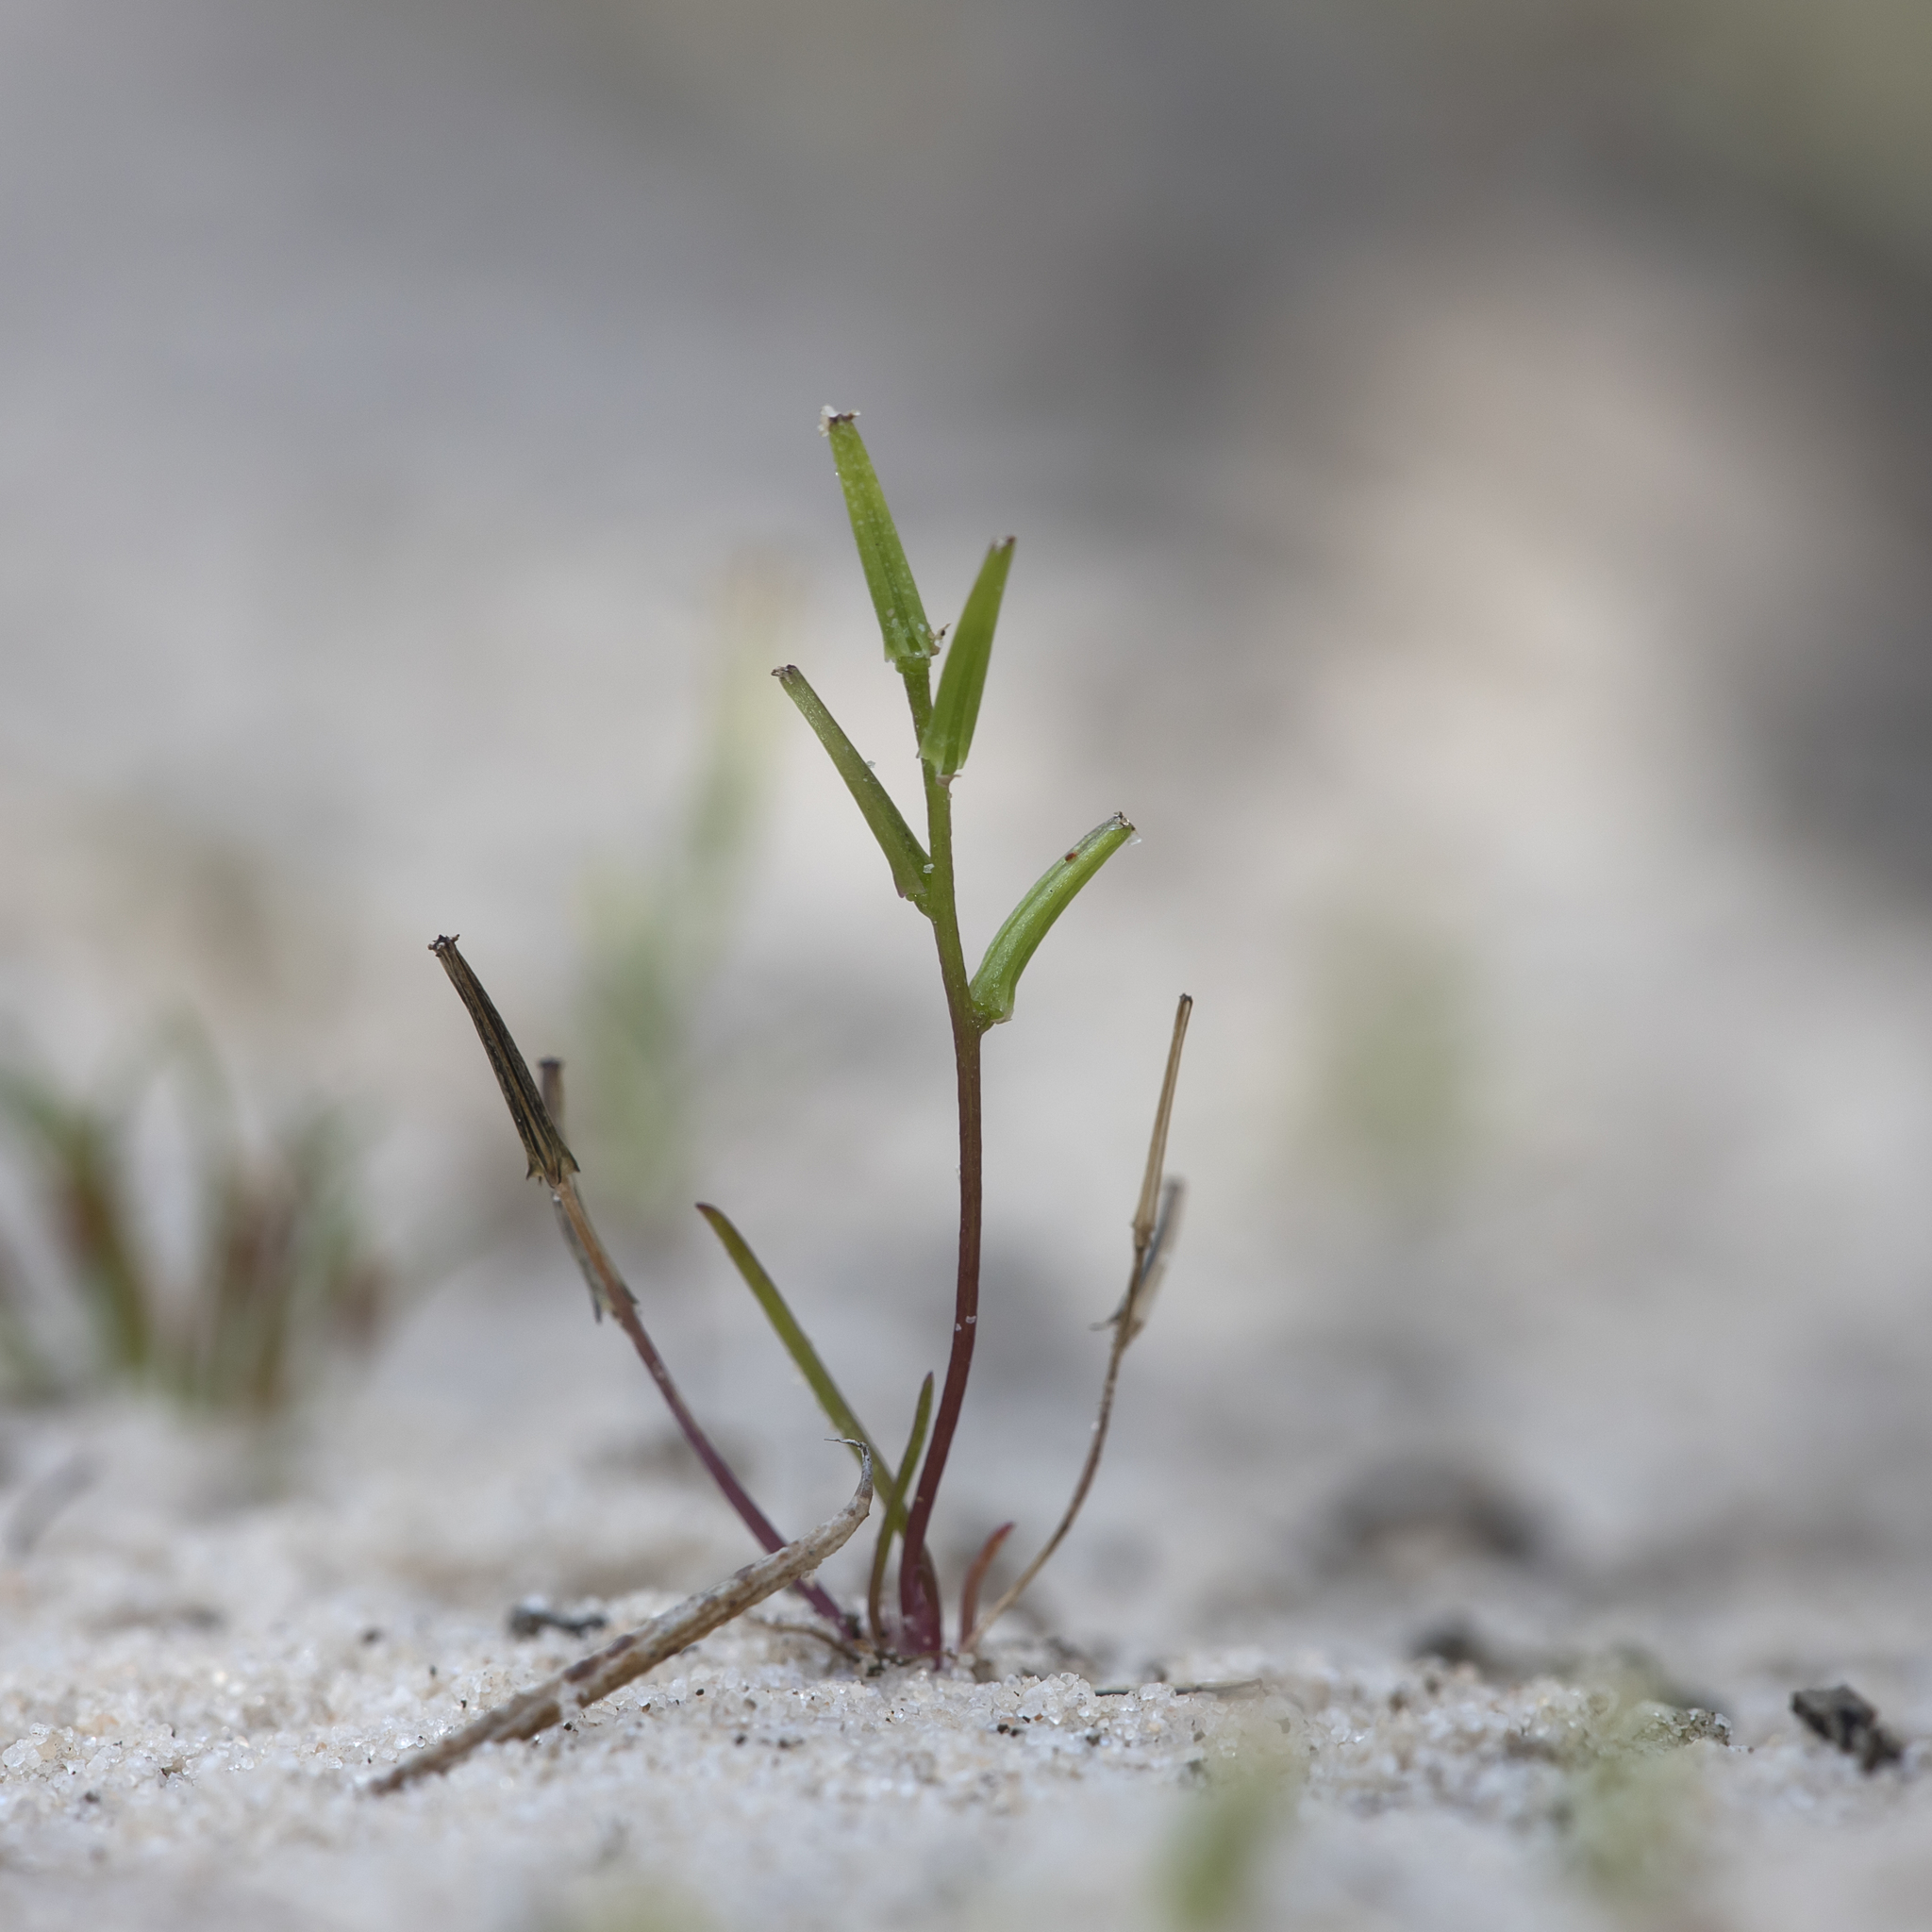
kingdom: Plantae
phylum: Tracheophyta
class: Liliopsida
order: Alismatales
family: Juncaginaceae
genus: Triglochin
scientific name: Triglochin nana
